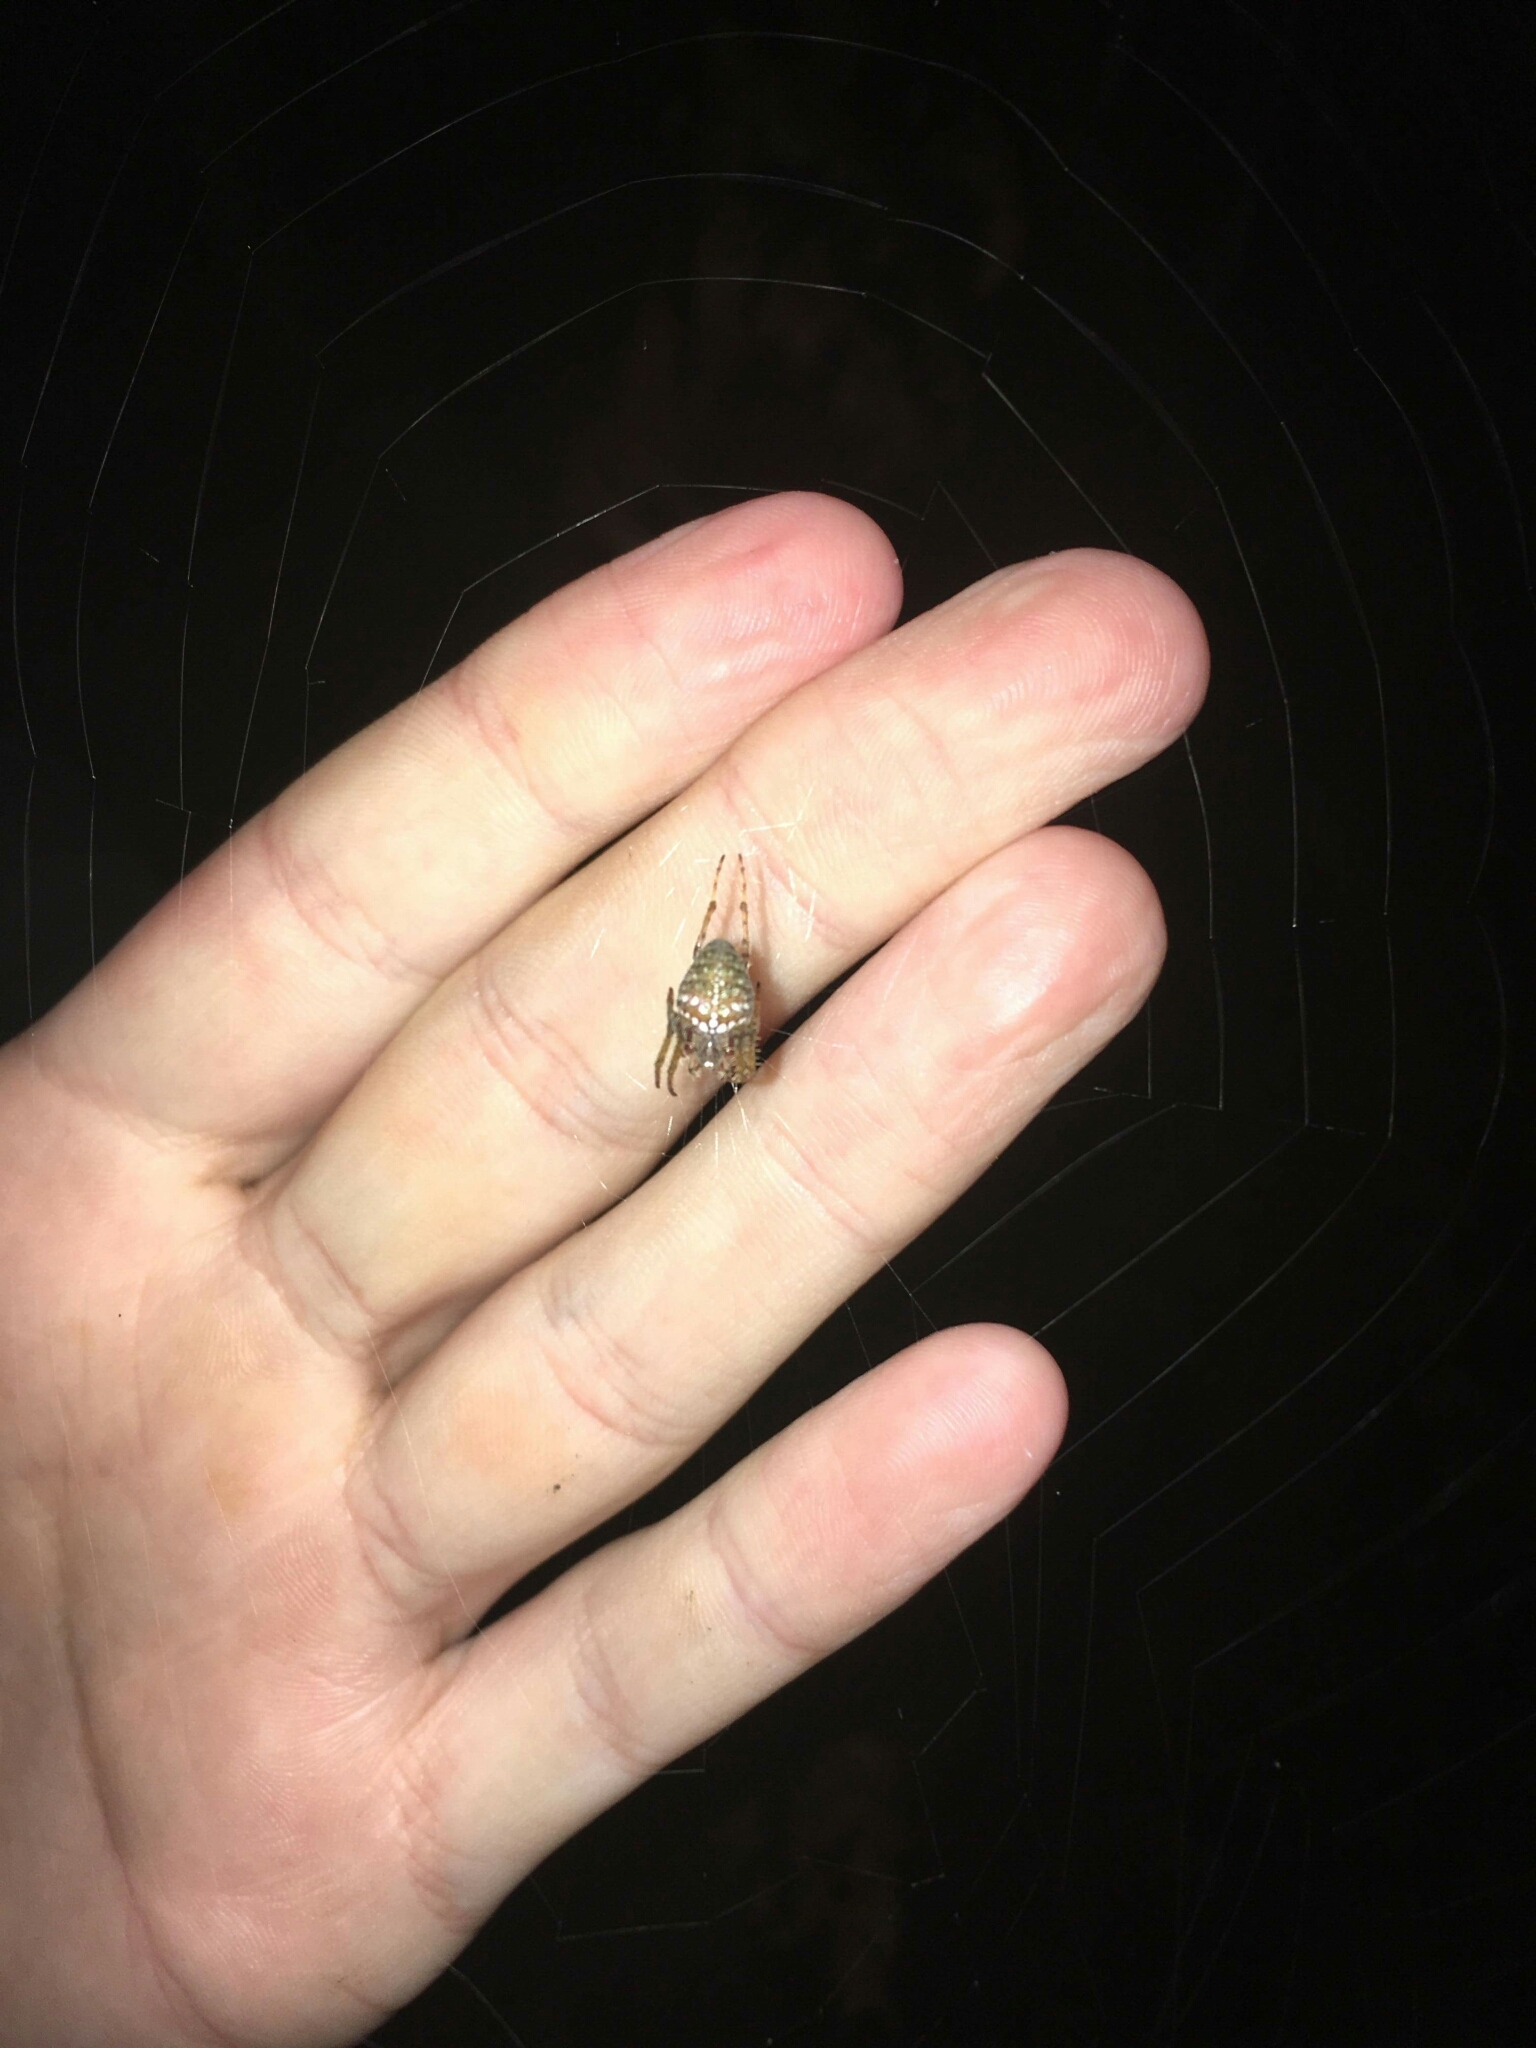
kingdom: Animalia
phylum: Arthropoda
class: Arachnida
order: Araneae
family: Araneidae
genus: Zealaranea
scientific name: Zealaranea crassa
